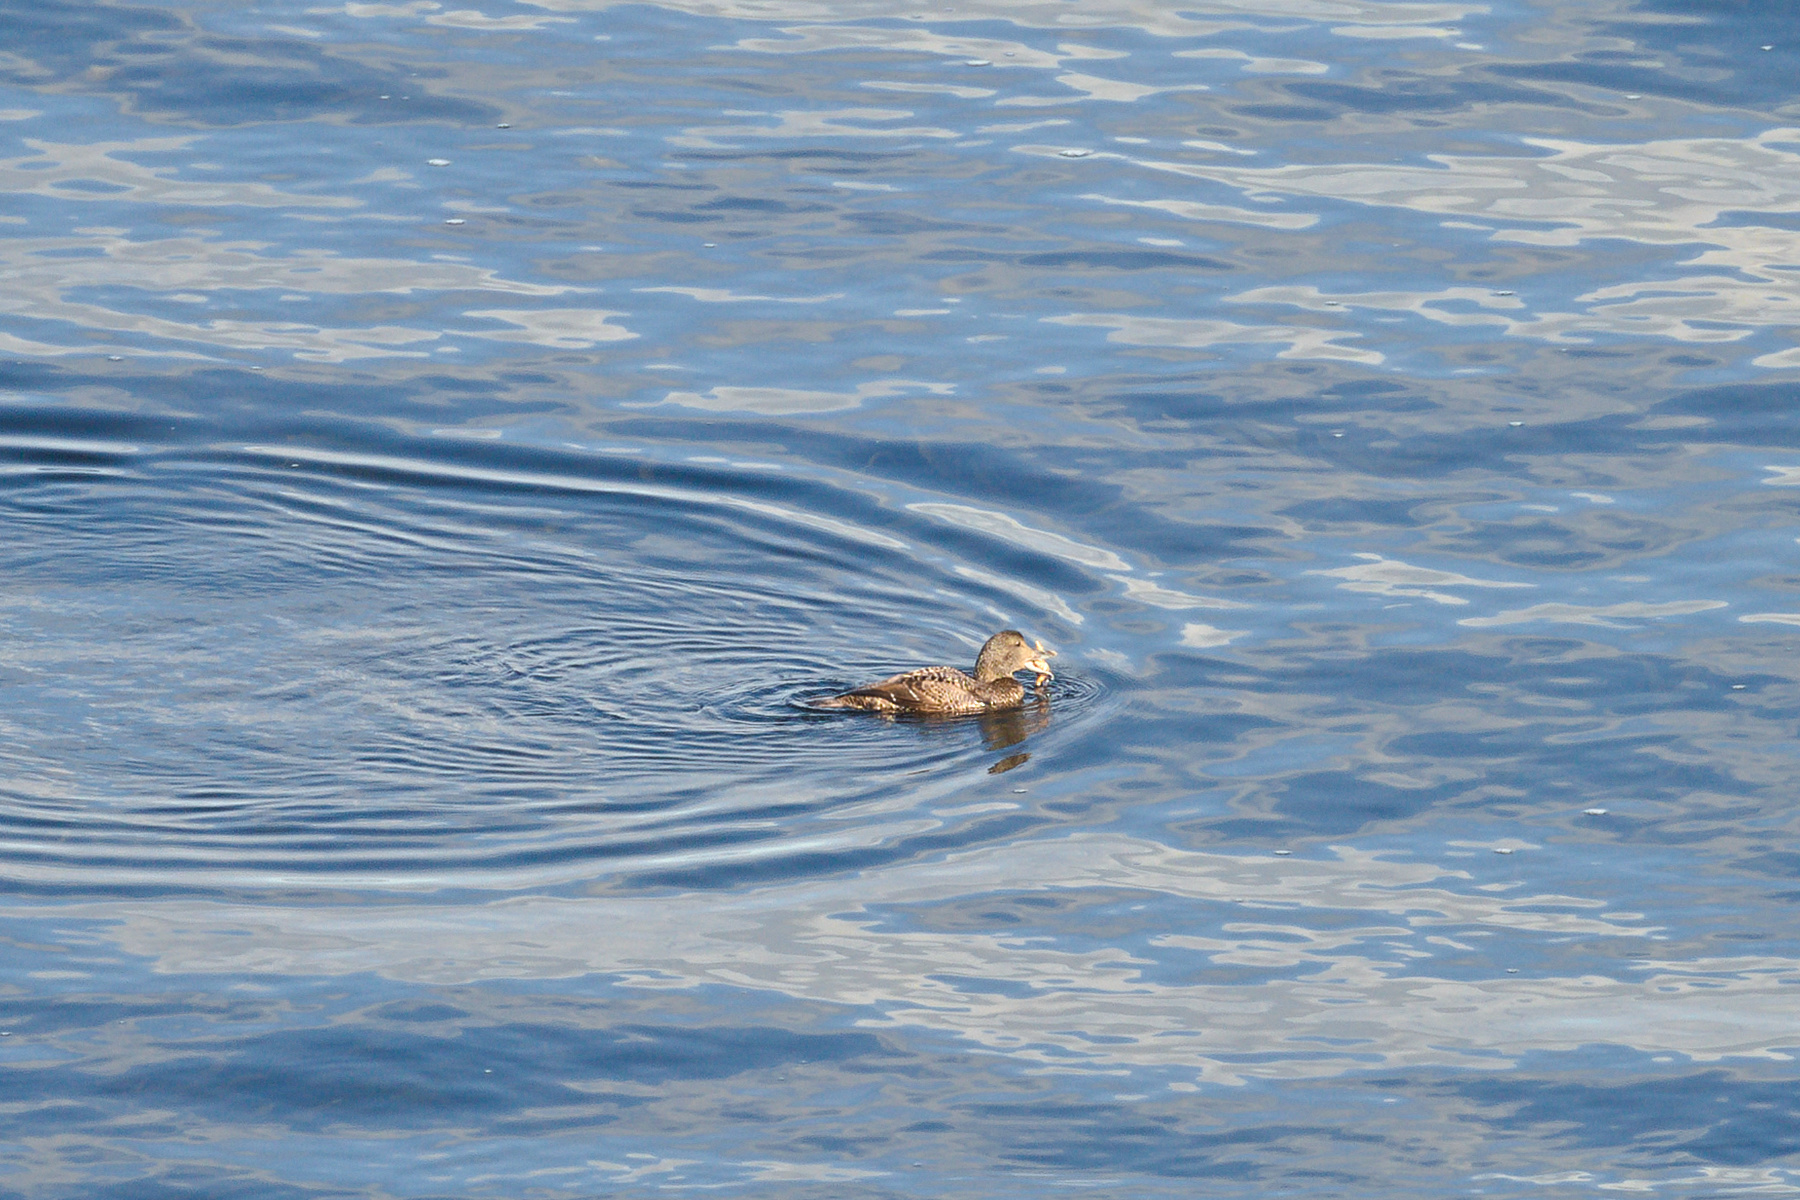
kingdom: Animalia
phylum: Chordata
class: Aves
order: Anseriformes
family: Anatidae
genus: Somateria
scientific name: Somateria mollissima
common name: Common eider
